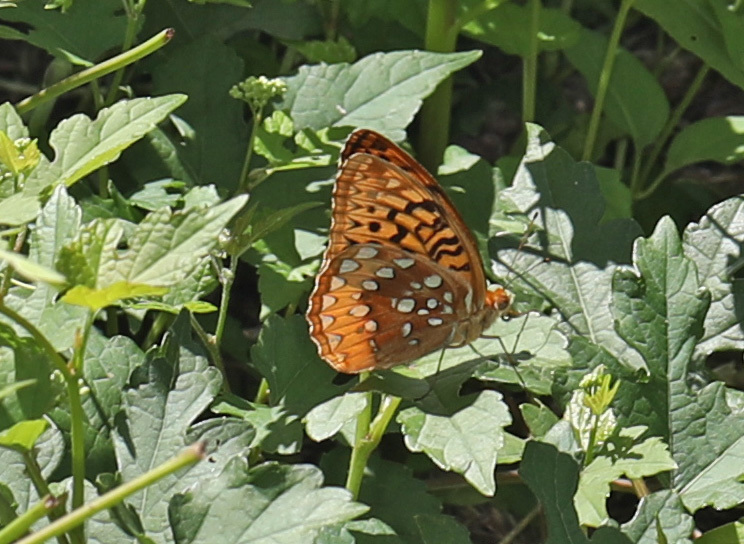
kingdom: Animalia
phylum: Arthropoda
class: Insecta
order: Lepidoptera
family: Nymphalidae
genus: Speyeria
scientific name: Speyeria cybele
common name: Great spangled fritillary
